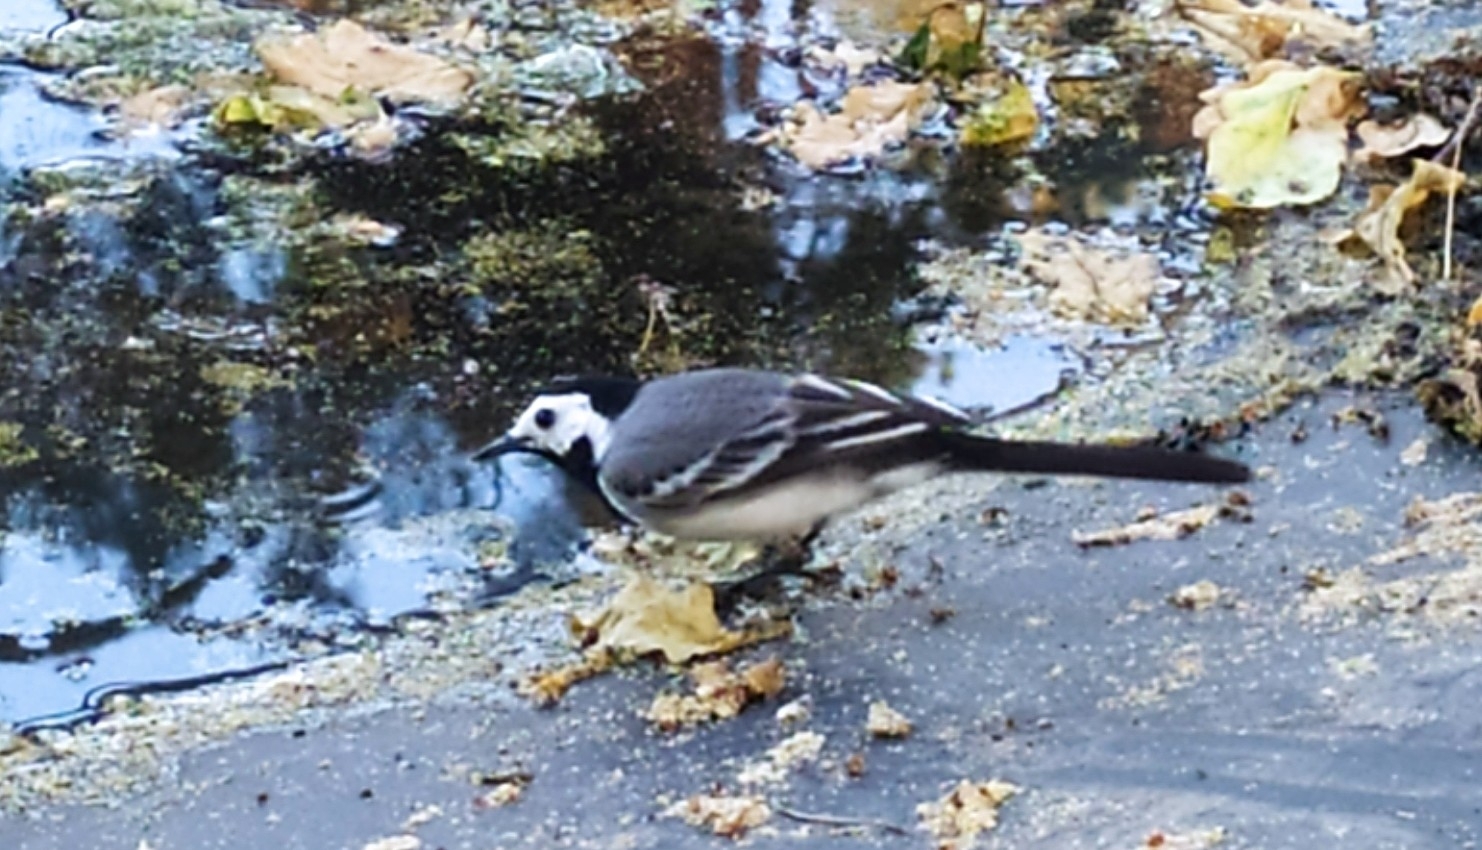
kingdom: Animalia
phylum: Chordata
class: Aves
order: Passeriformes
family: Motacillidae
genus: Motacilla
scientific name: Motacilla alba
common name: White wagtail
